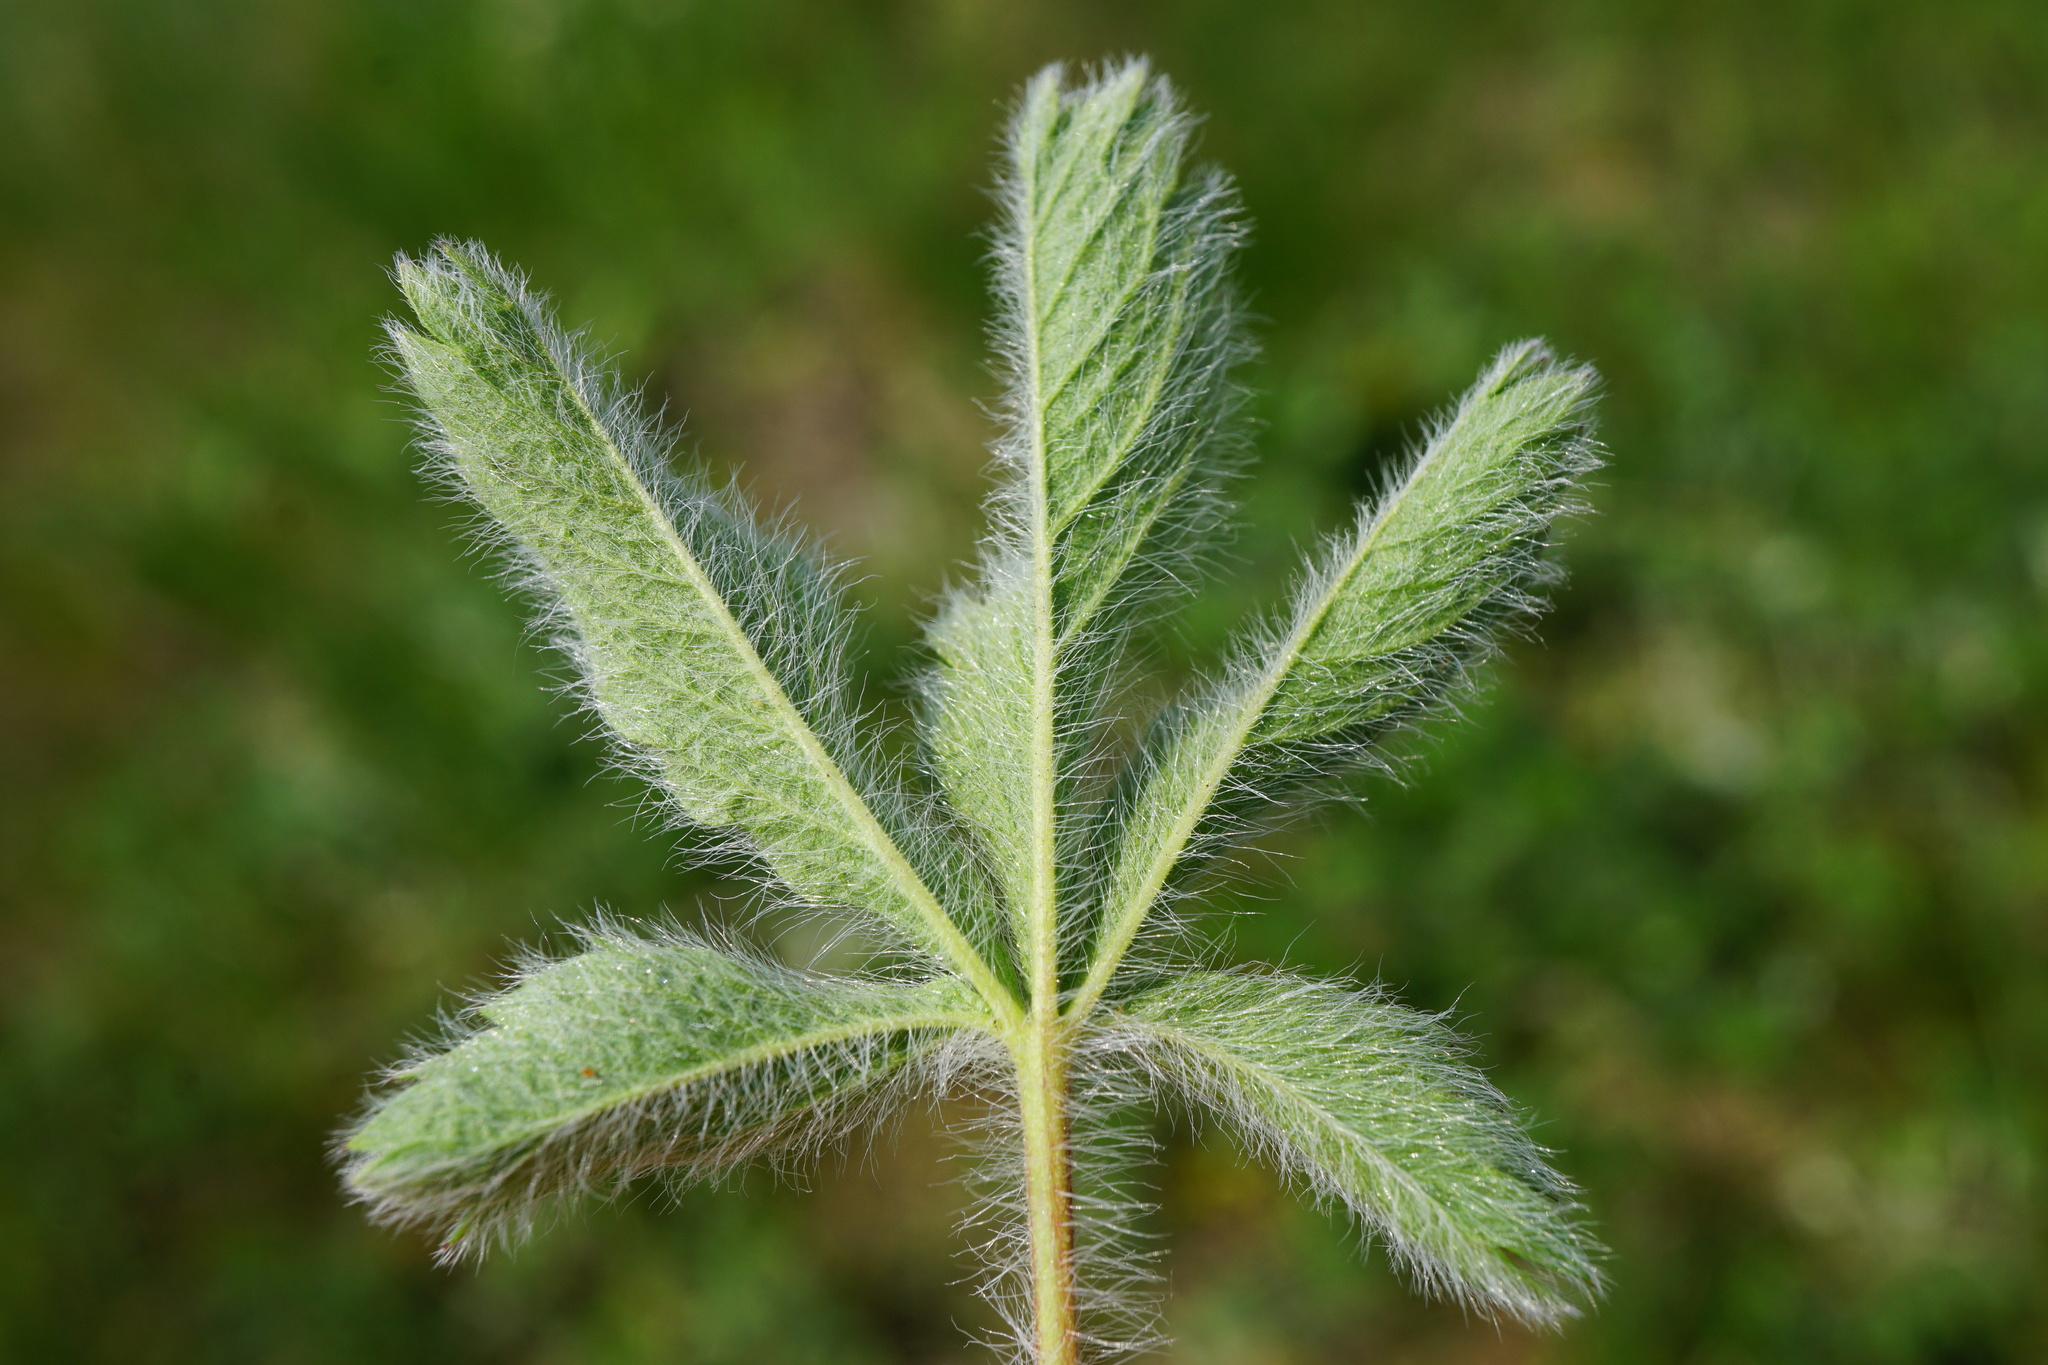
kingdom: Plantae
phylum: Tracheophyta
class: Magnoliopsida
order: Rosales
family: Rosaceae
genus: Potentilla
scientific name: Potentilla recta
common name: Sulphur cinquefoil
